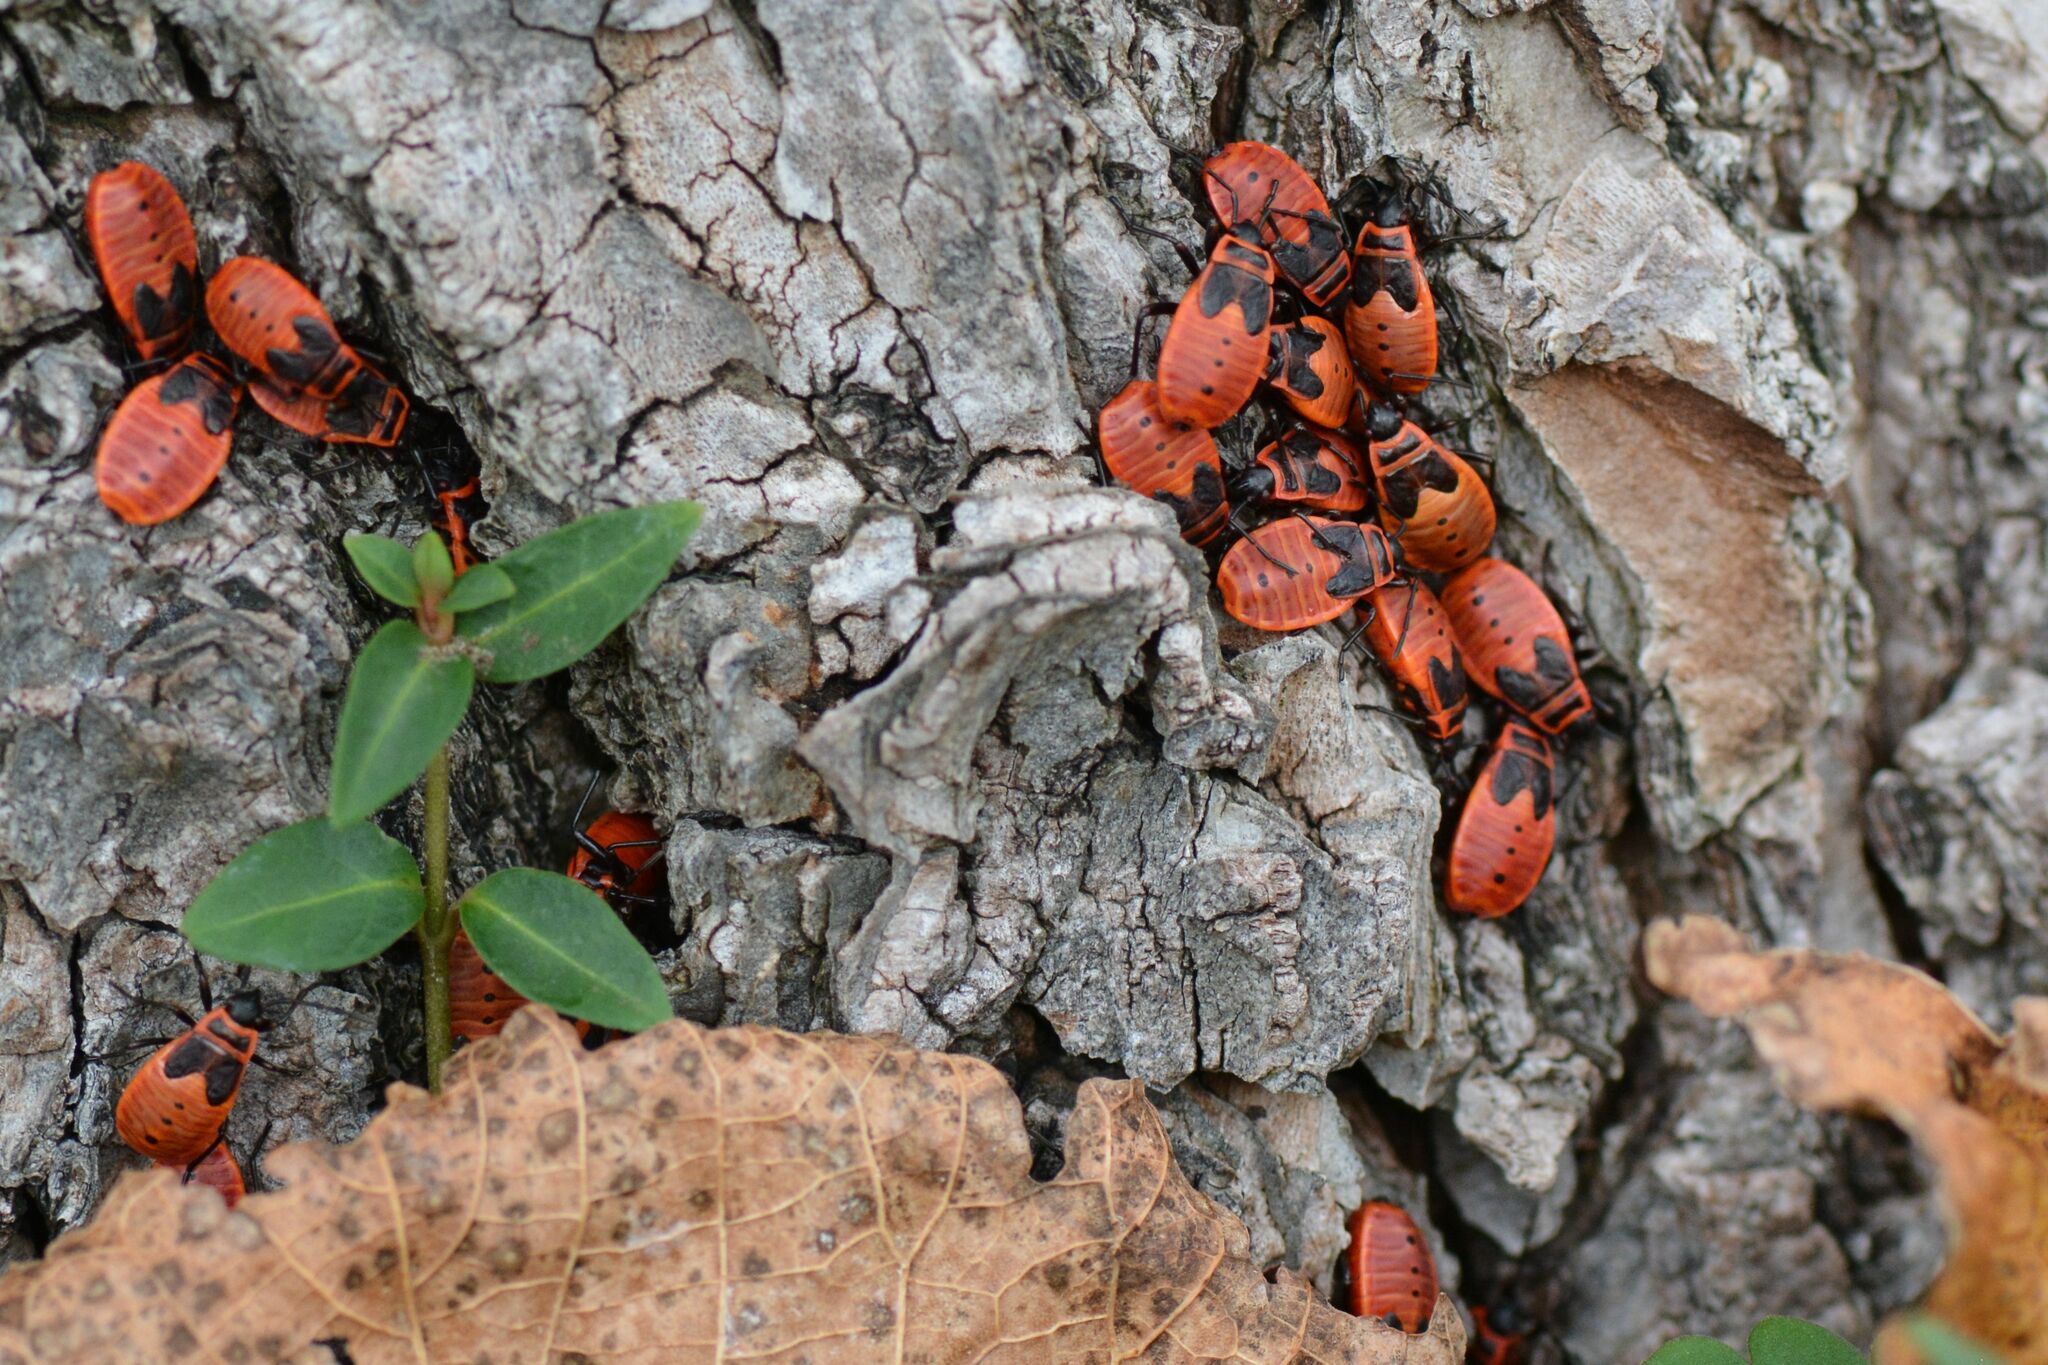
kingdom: Animalia
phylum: Arthropoda
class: Insecta
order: Hemiptera
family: Pyrrhocoridae
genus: Pyrrhocoris
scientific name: Pyrrhocoris apterus
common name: Firebug
